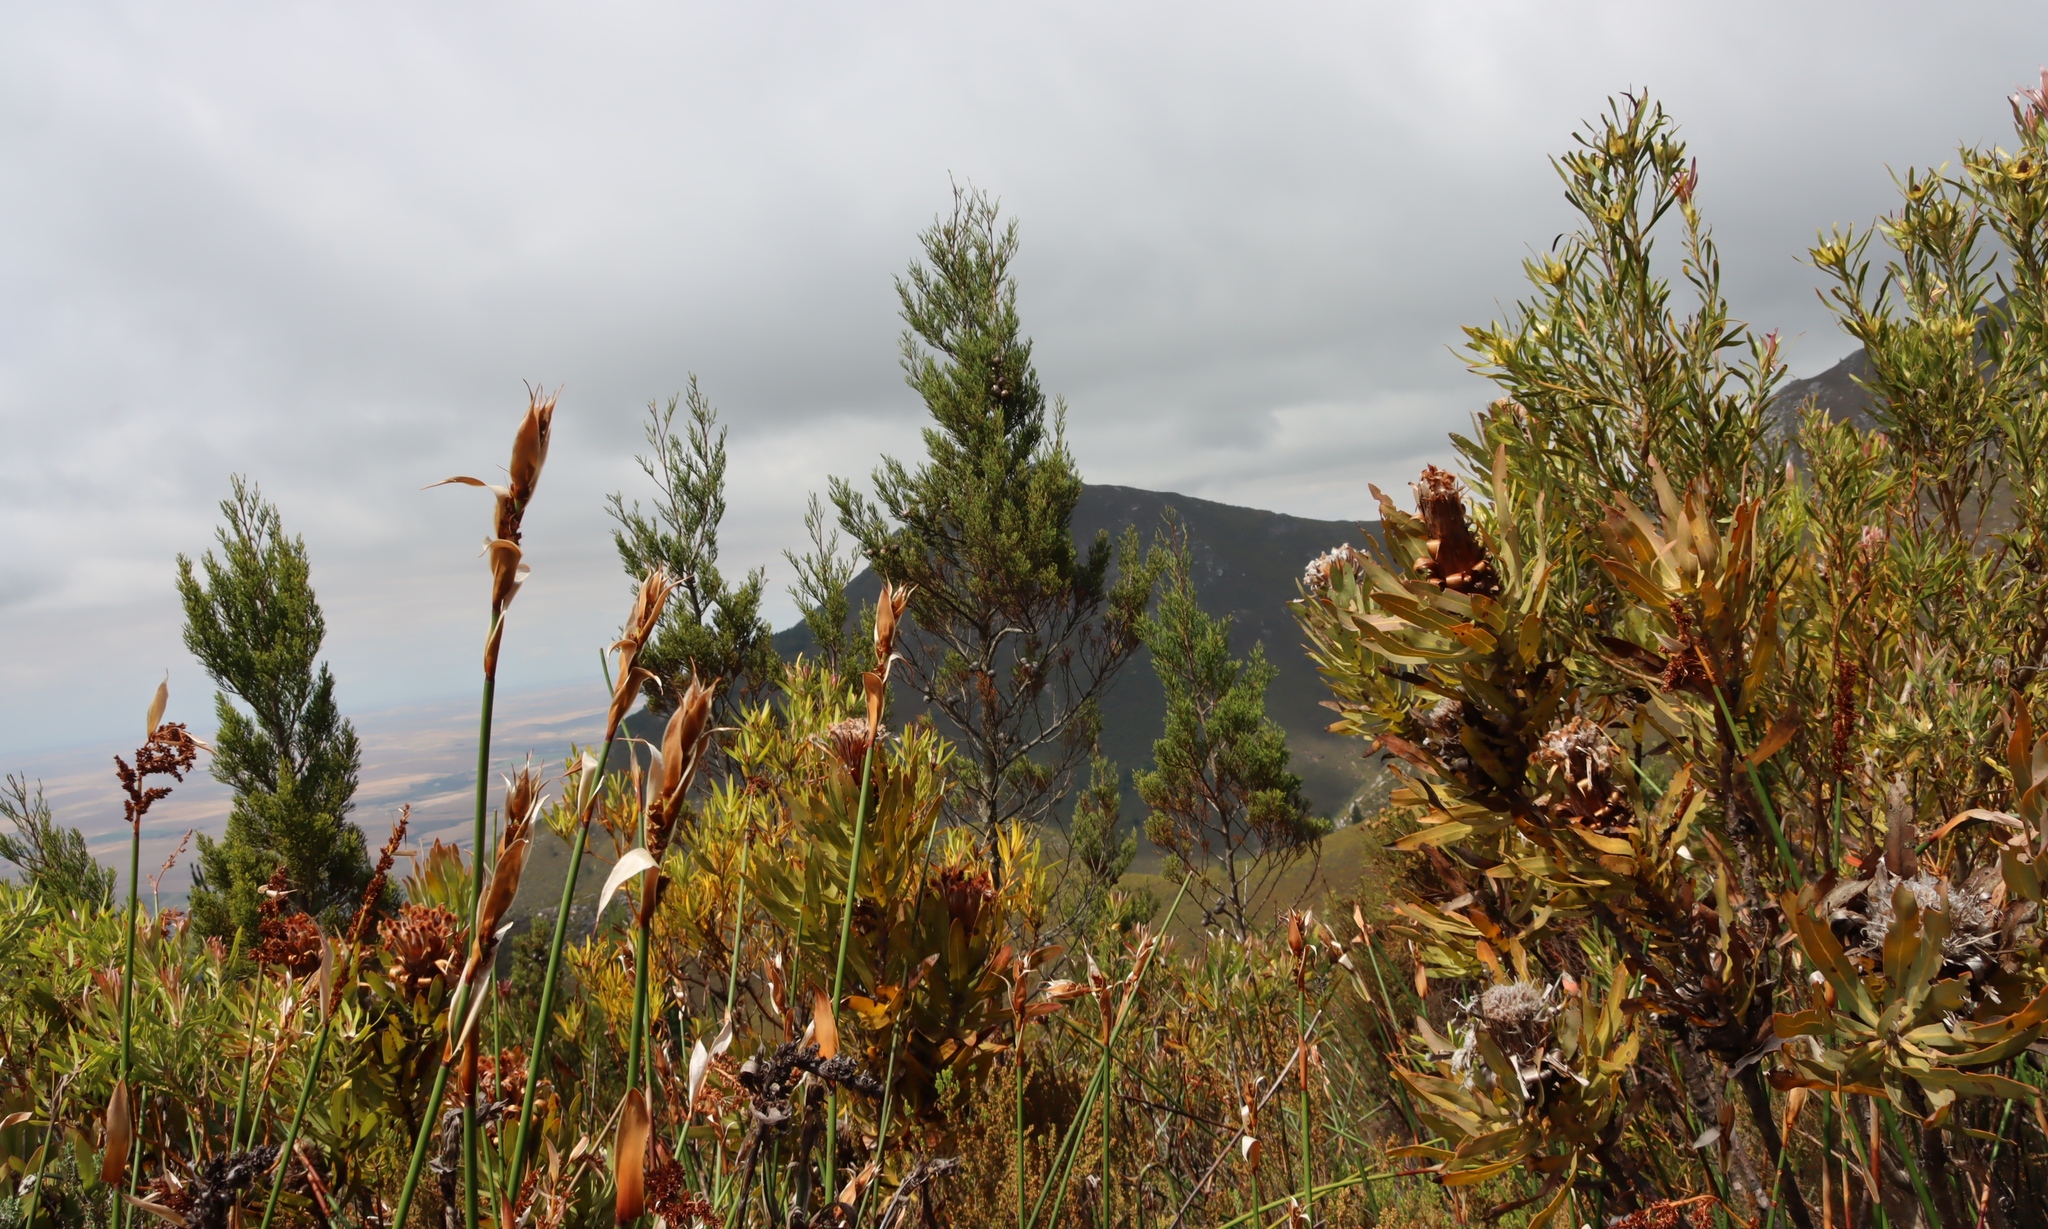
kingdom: Plantae
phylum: Tracheophyta
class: Pinopsida
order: Pinales
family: Cupressaceae
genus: Widdringtonia
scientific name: Widdringtonia nodiflora
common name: Cape cypress
